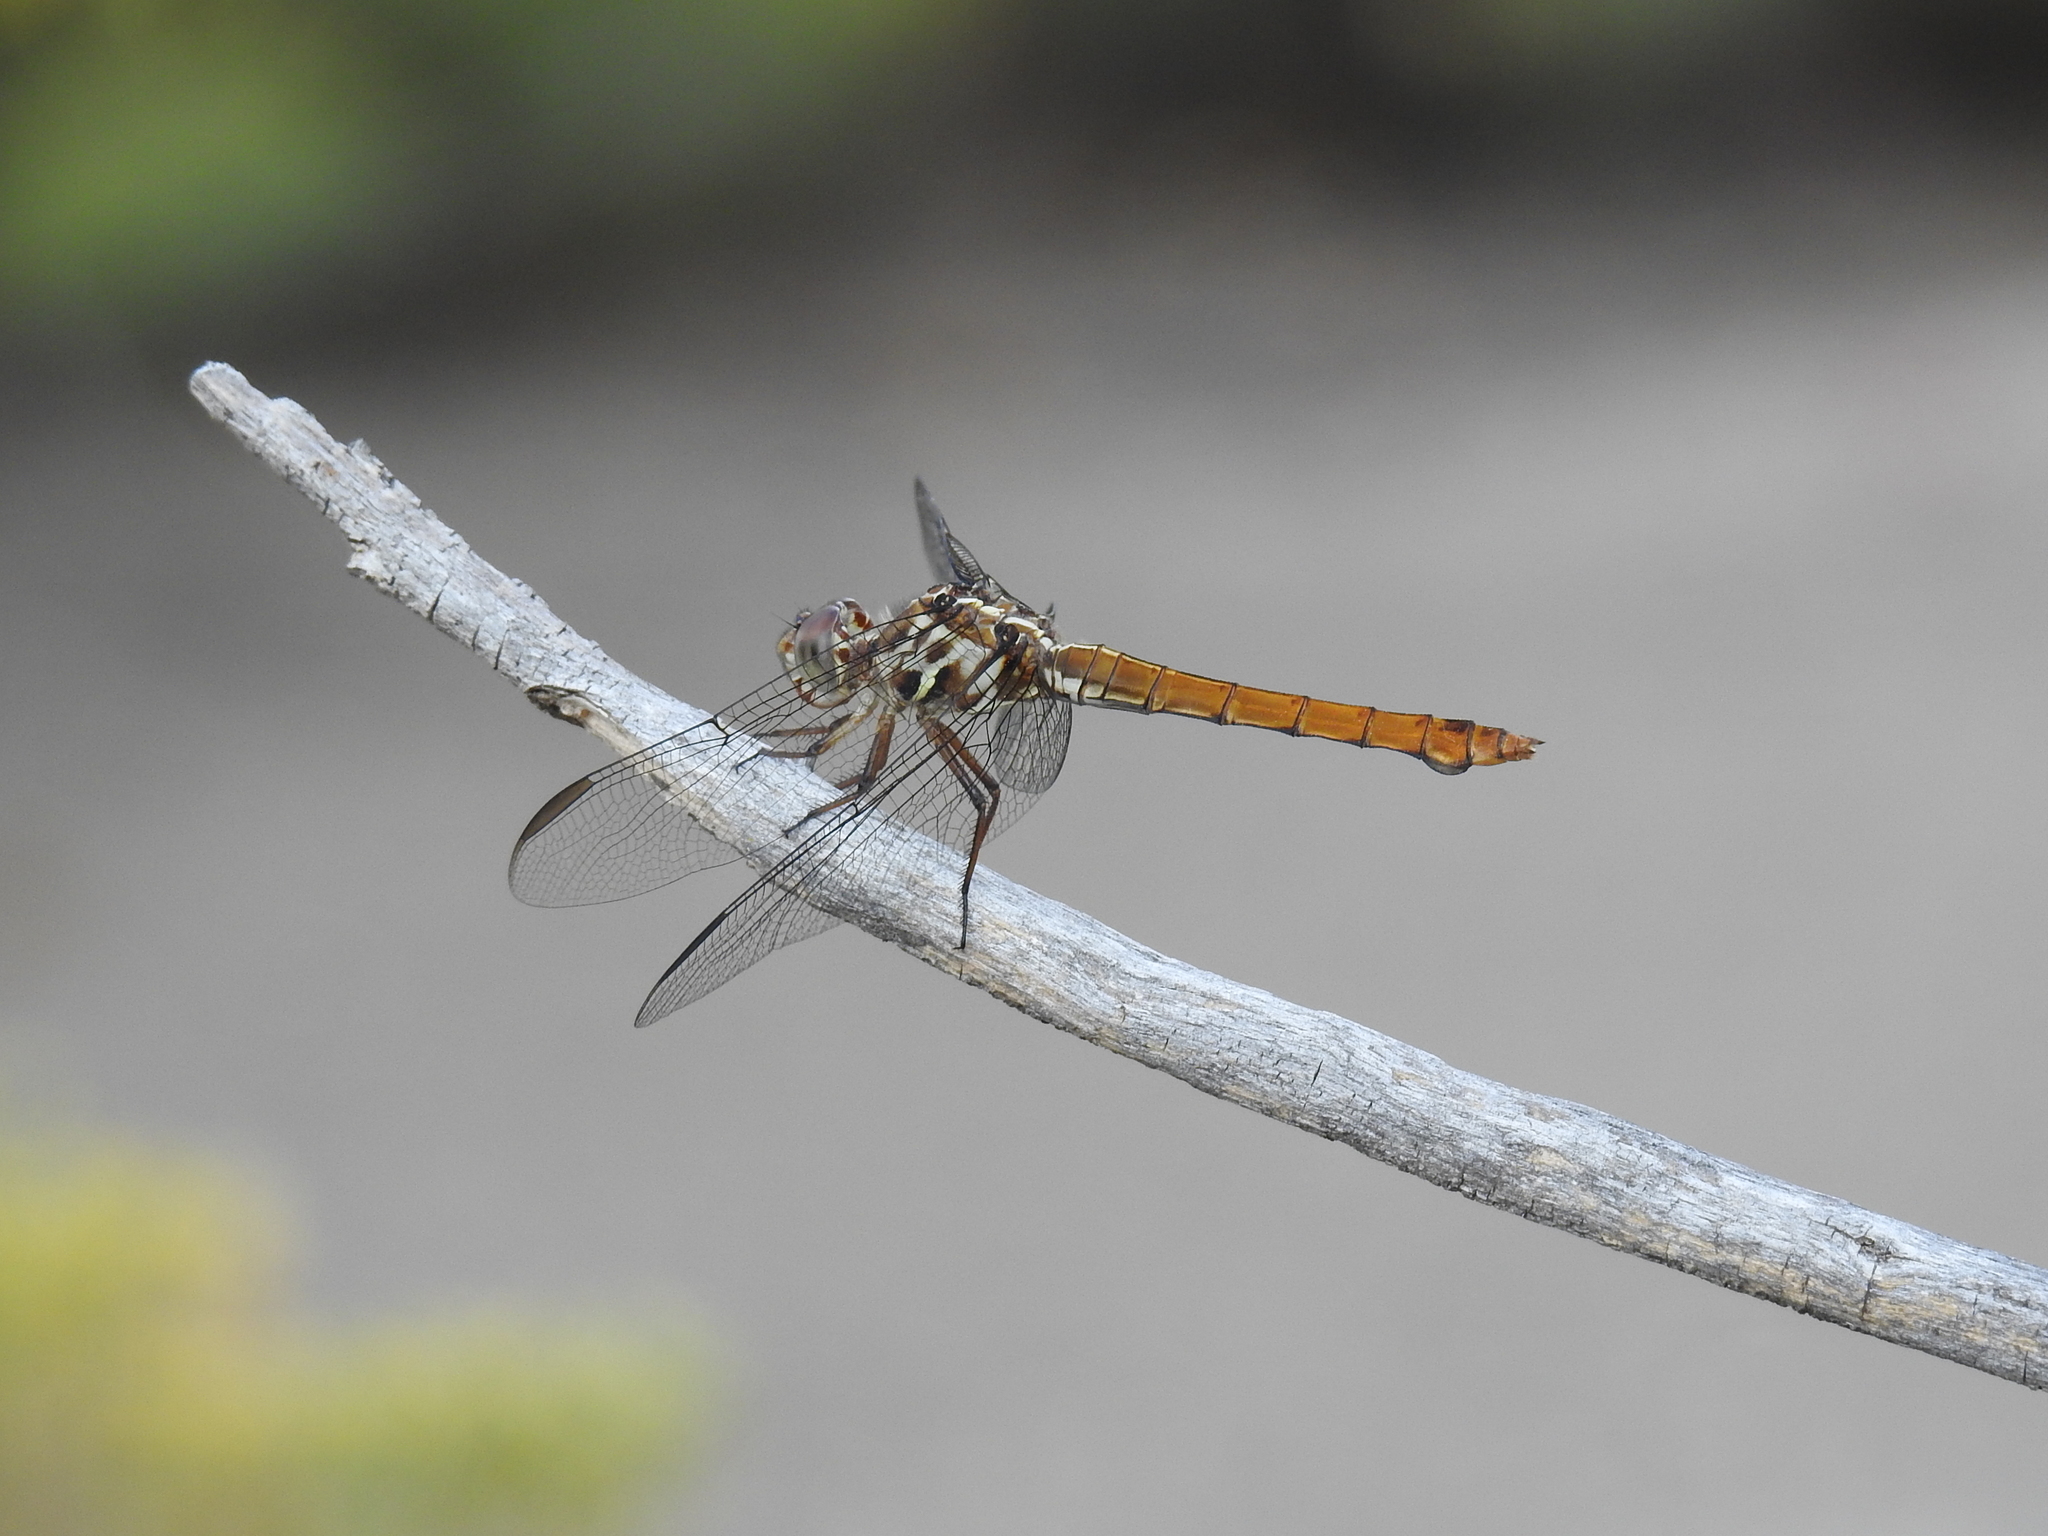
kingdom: Animalia
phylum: Arthropoda
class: Insecta
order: Odonata
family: Libellulidae
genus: Orthemis
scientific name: Orthemis ferruginea
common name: Roseate skimmer
